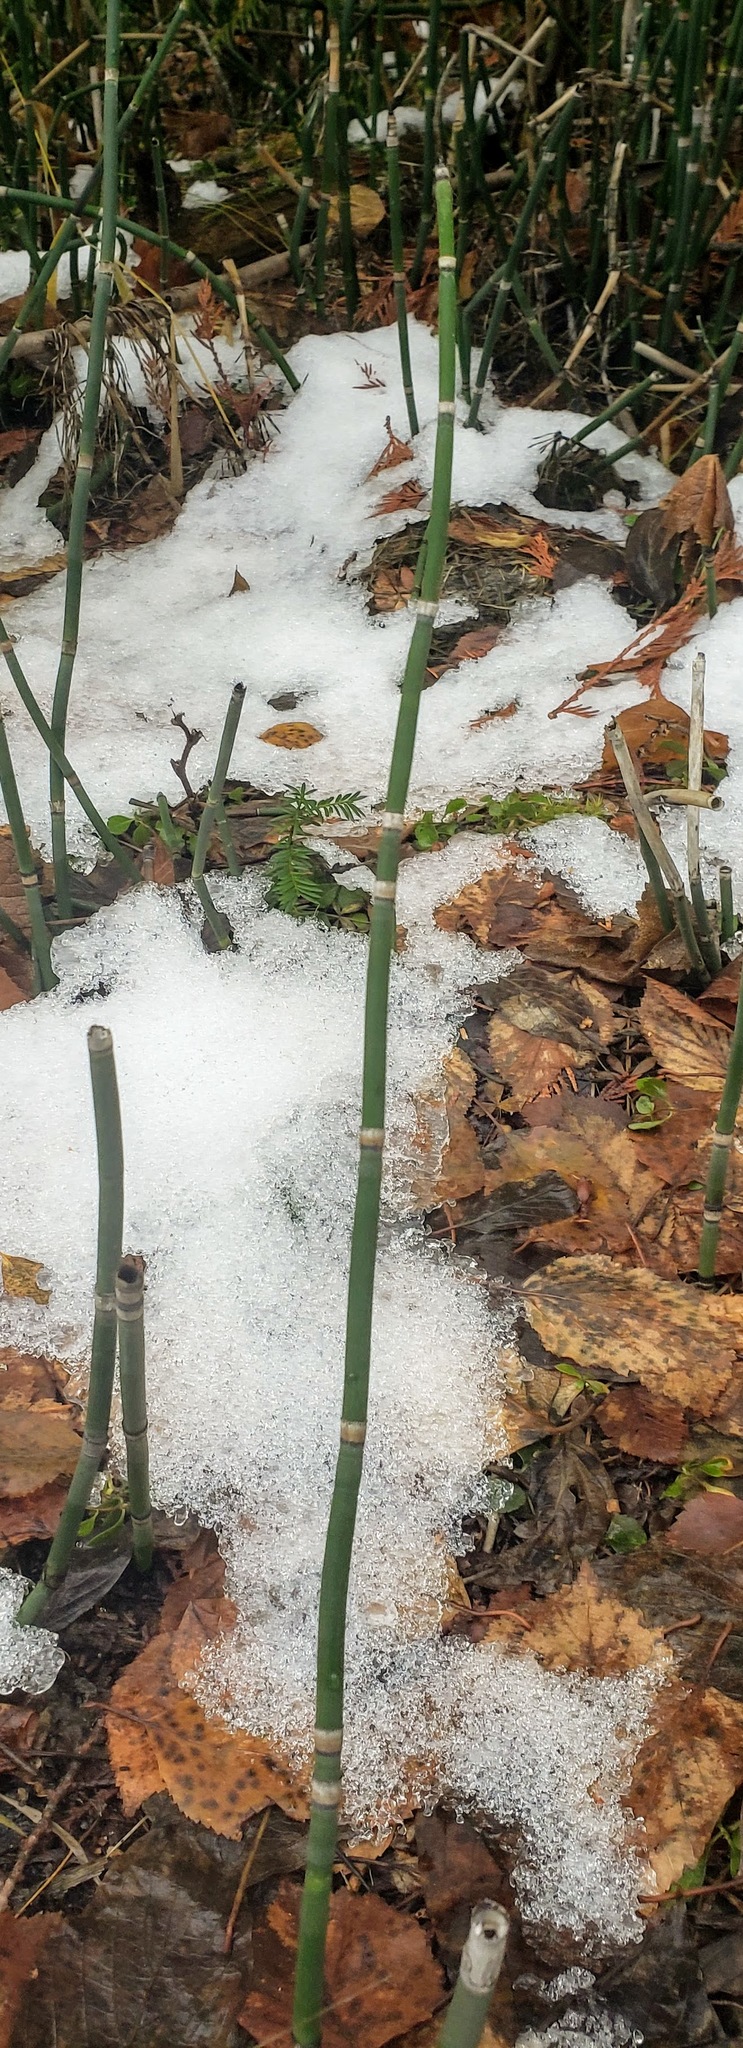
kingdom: Plantae
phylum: Tracheophyta
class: Polypodiopsida
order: Equisetales
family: Equisetaceae
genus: Equisetum
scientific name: Equisetum praealtum
